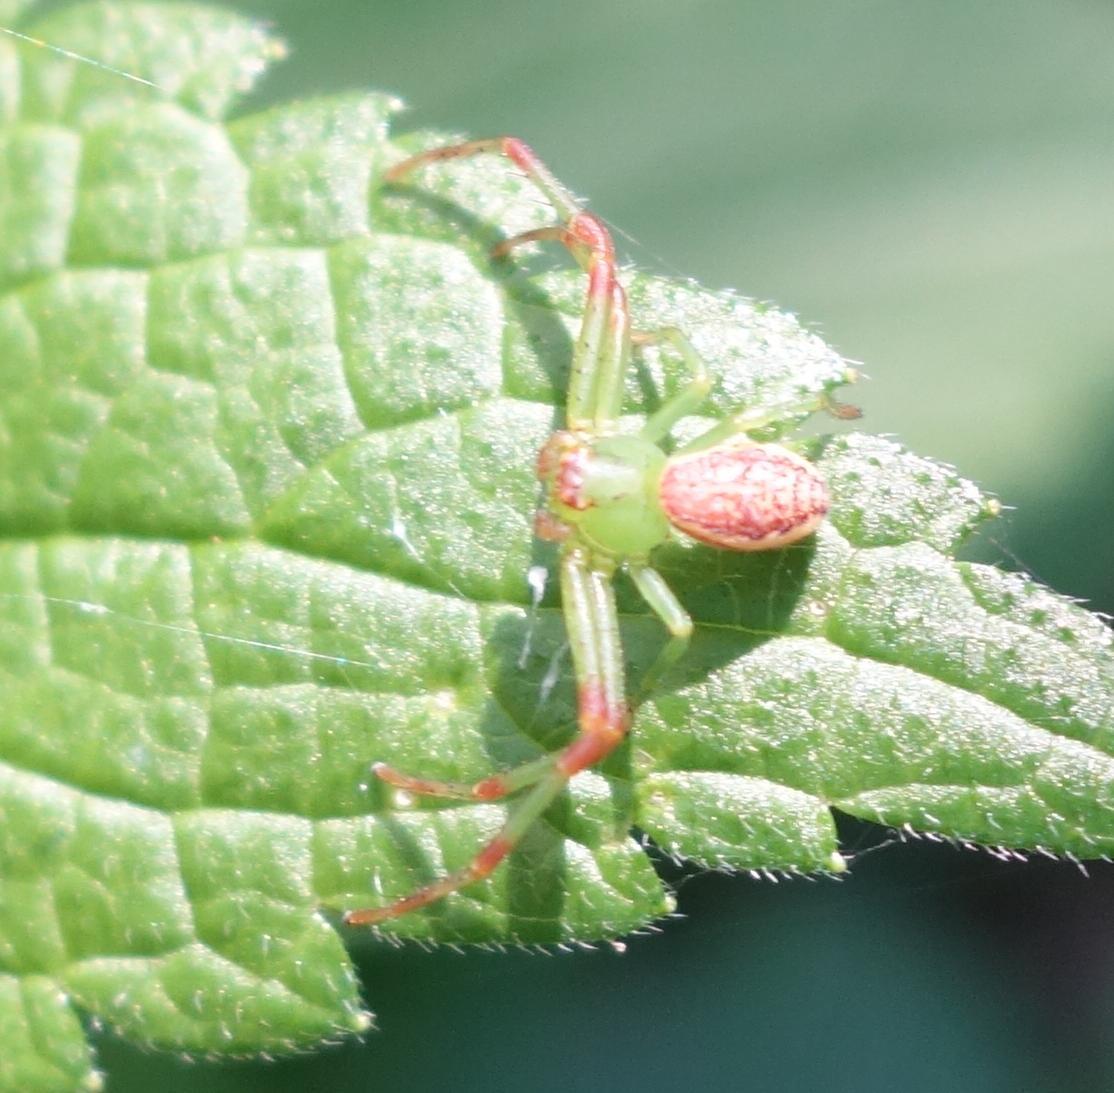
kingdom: Animalia
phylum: Arthropoda
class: Arachnida
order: Araneae
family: Thomisidae
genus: Diaea
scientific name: Diaea dorsata
